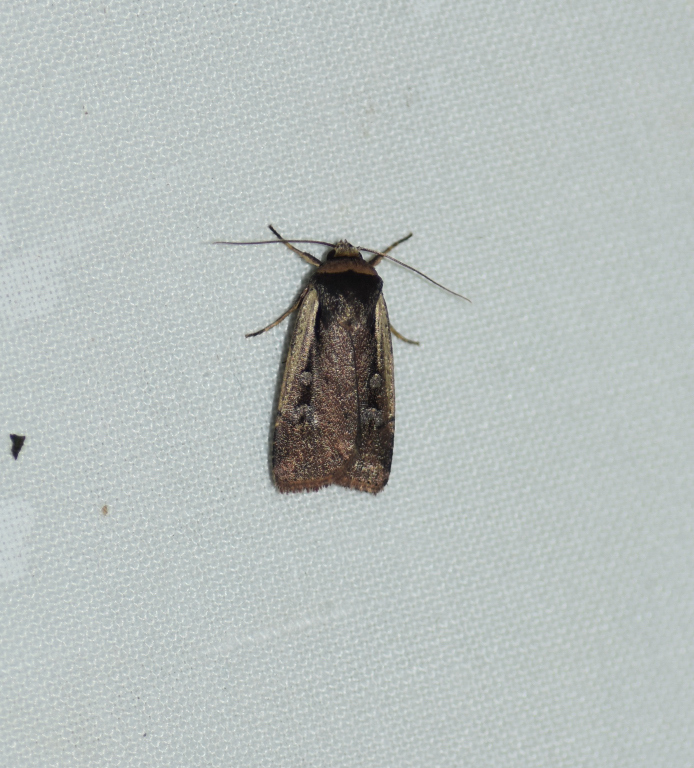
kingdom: Animalia
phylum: Arthropoda
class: Insecta
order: Lepidoptera
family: Noctuidae
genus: Ochropleura
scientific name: Ochropleura implecta
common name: Flame-shouldered dart
